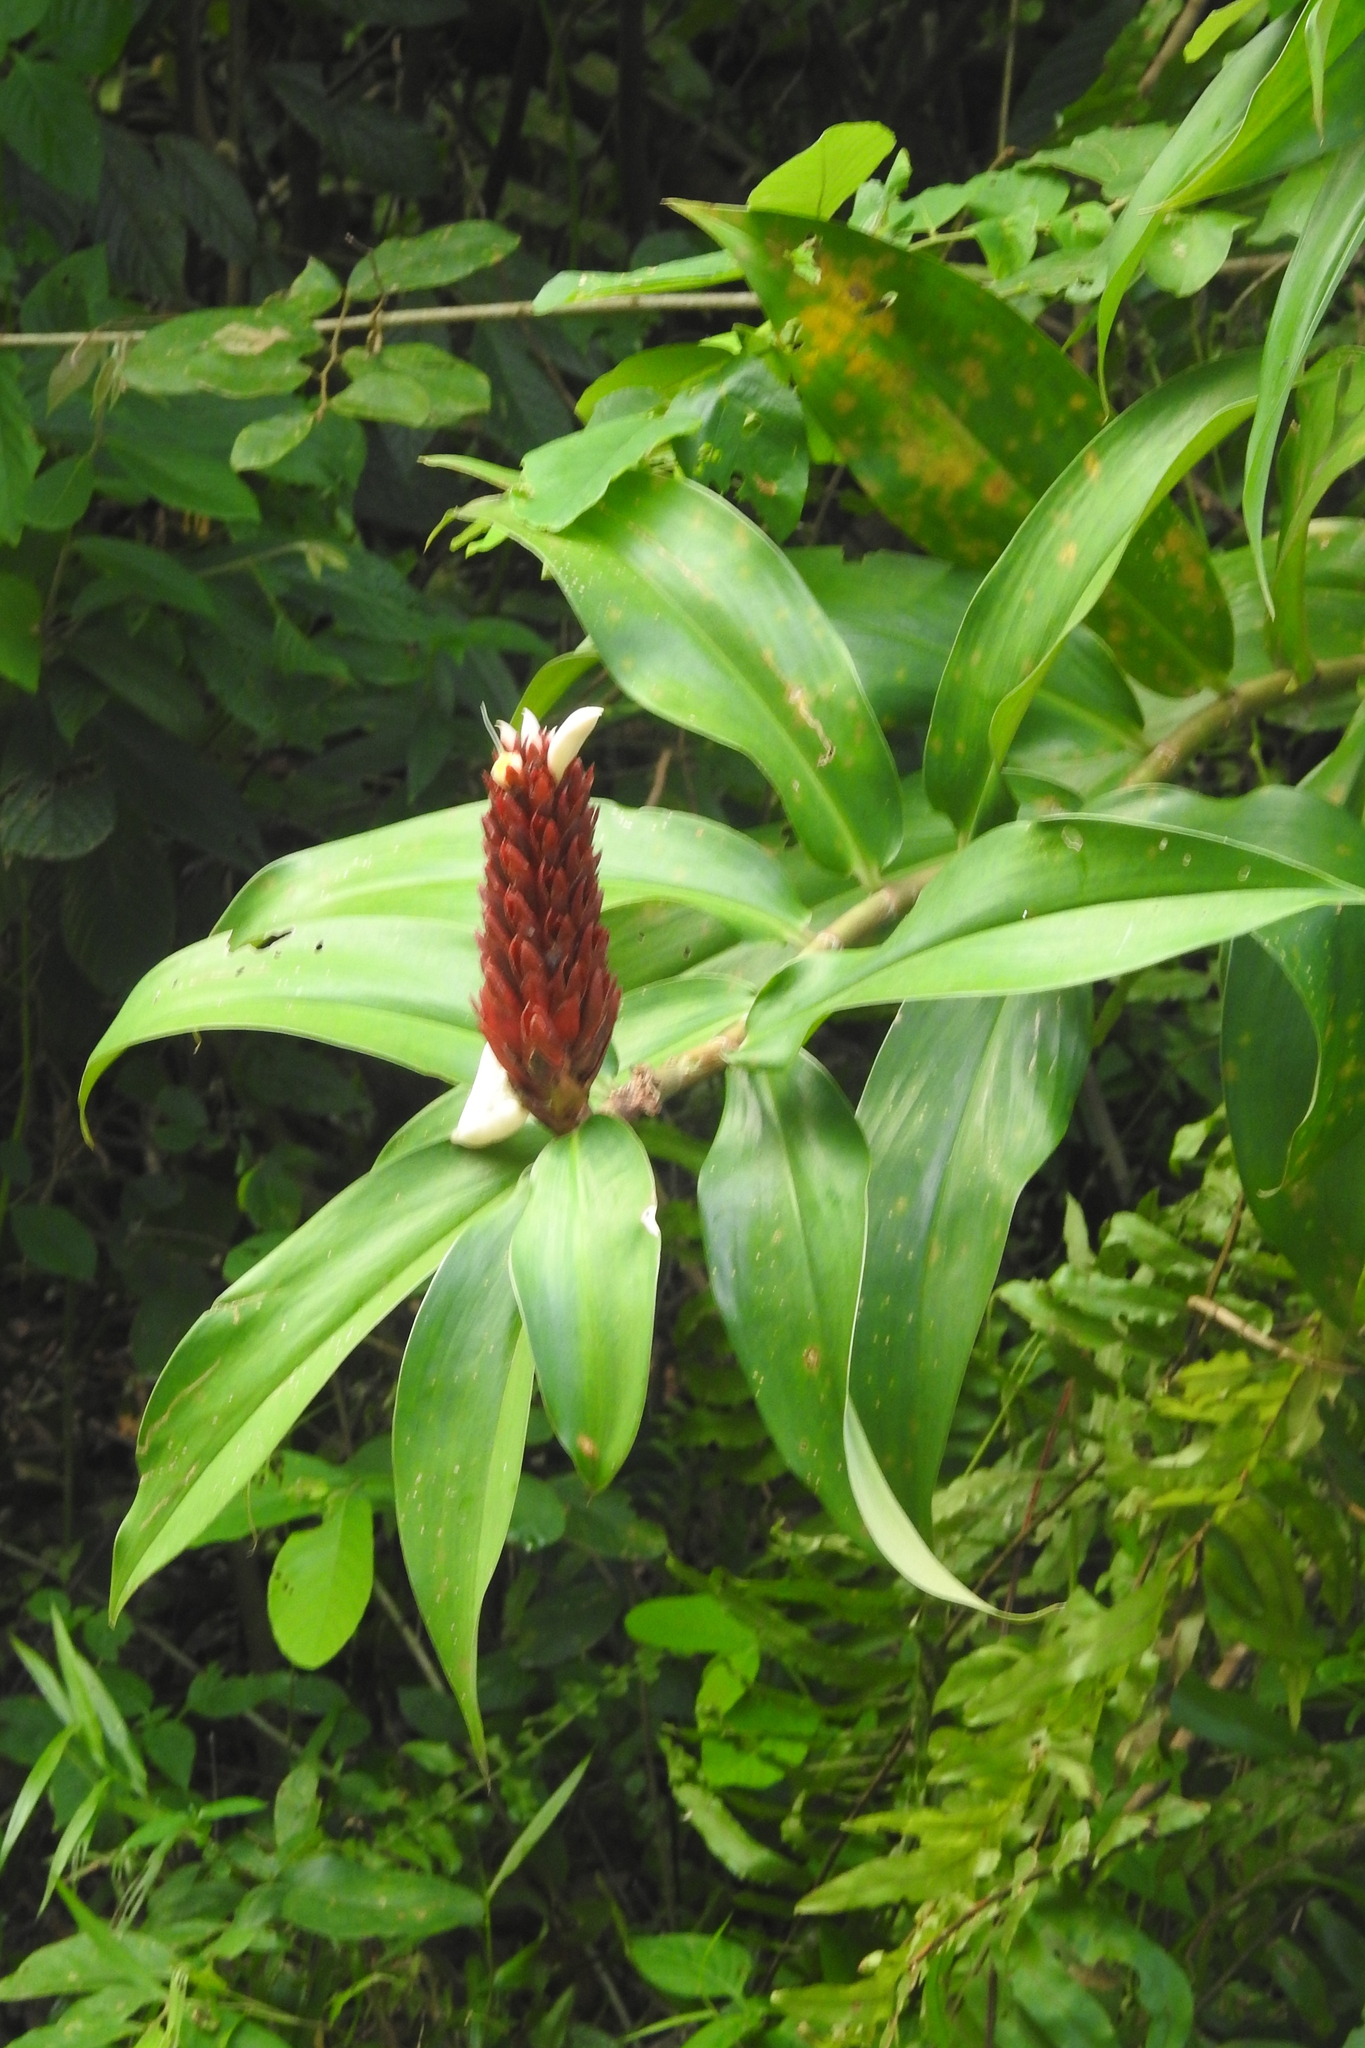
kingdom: Plantae
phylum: Tracheophyta
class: Liliopsida
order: Zingiberales
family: Costaceae
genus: Hellenia
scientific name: Hellenia speciosa
